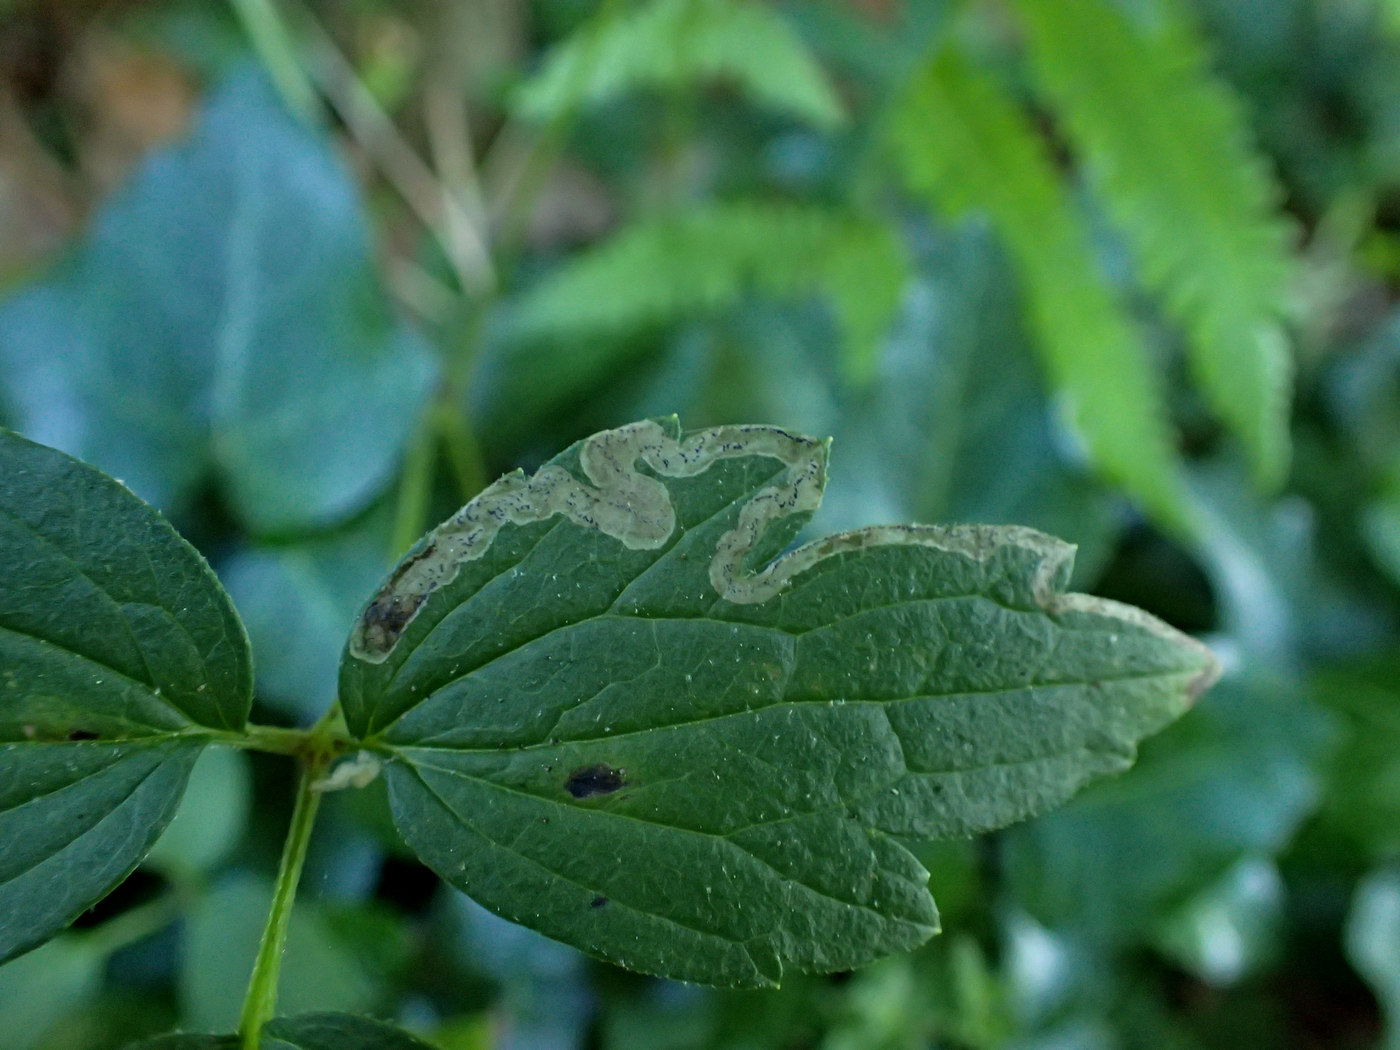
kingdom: Animalia
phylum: Arthropoda
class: Insecta
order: Diptera
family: Agromyzidae
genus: Phytomyza
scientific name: Phytomyza loewii
